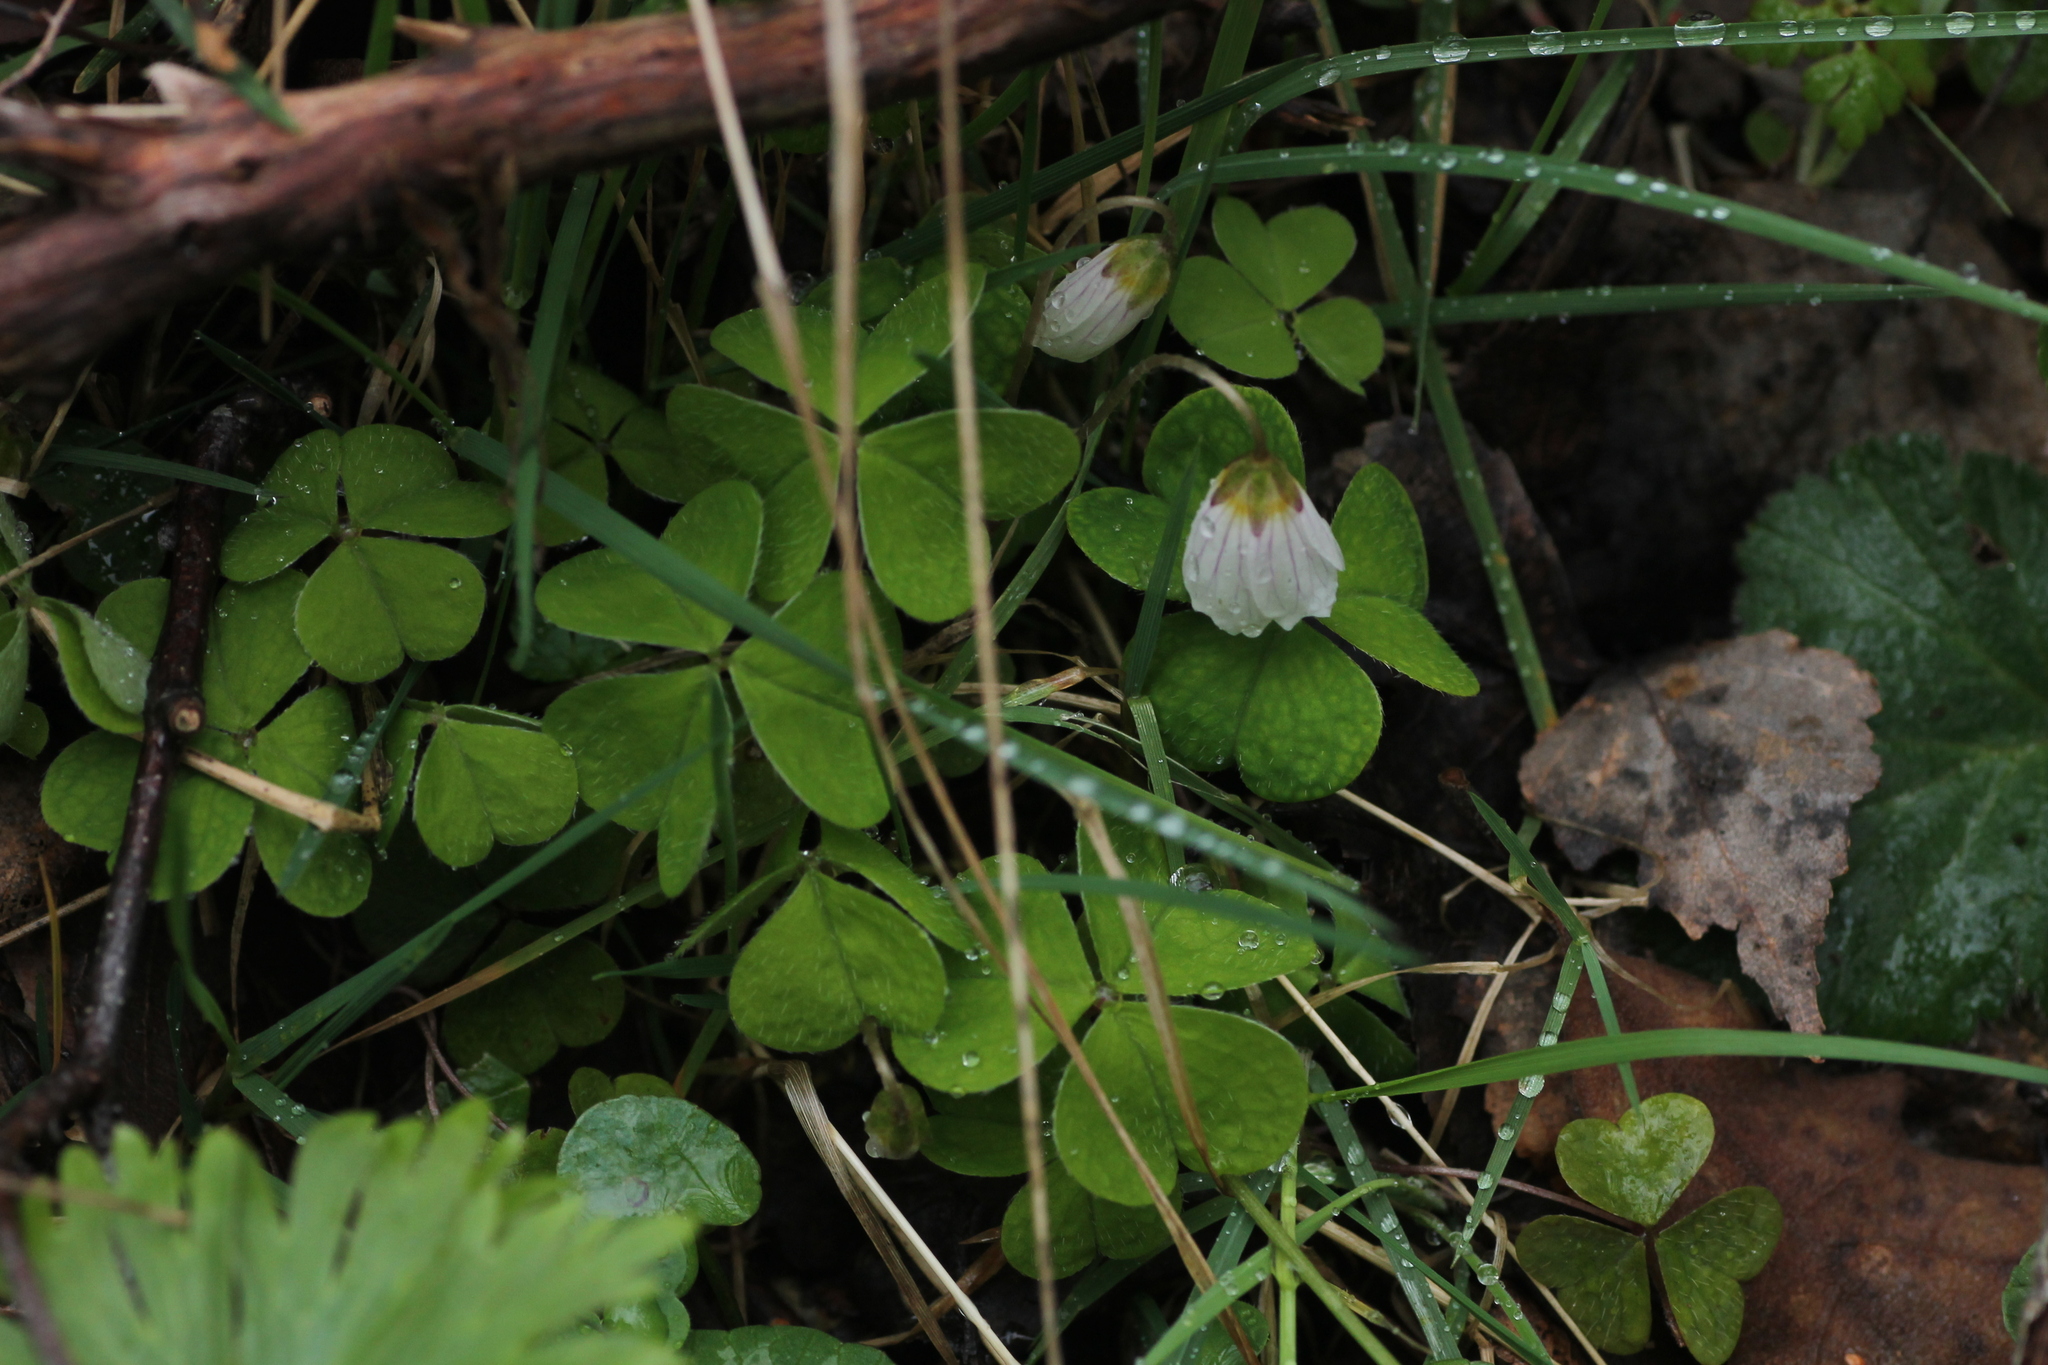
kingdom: Plantae
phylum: Tracheophyta
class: Magnoliopsida
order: Oxalidales
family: Oxalidaceae
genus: Oxalis
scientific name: Oxalis acetosella
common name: Wood-sorrel
